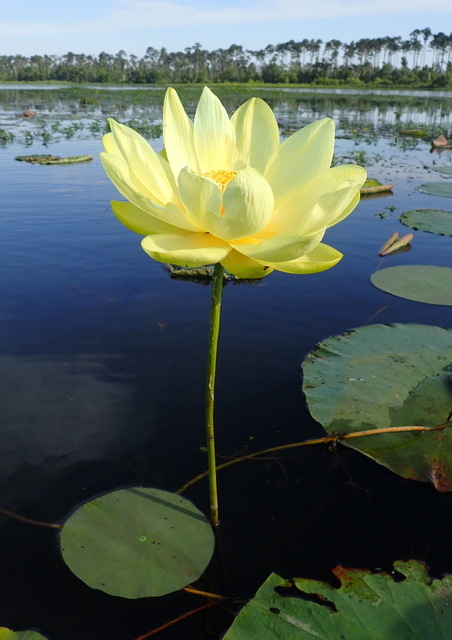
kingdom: Plantae
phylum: Tracheophyta
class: Magnoliopsida
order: Proteales
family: Nelumbonaceae
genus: Nelumbo
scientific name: Nelumbo lutea
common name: American lotus
